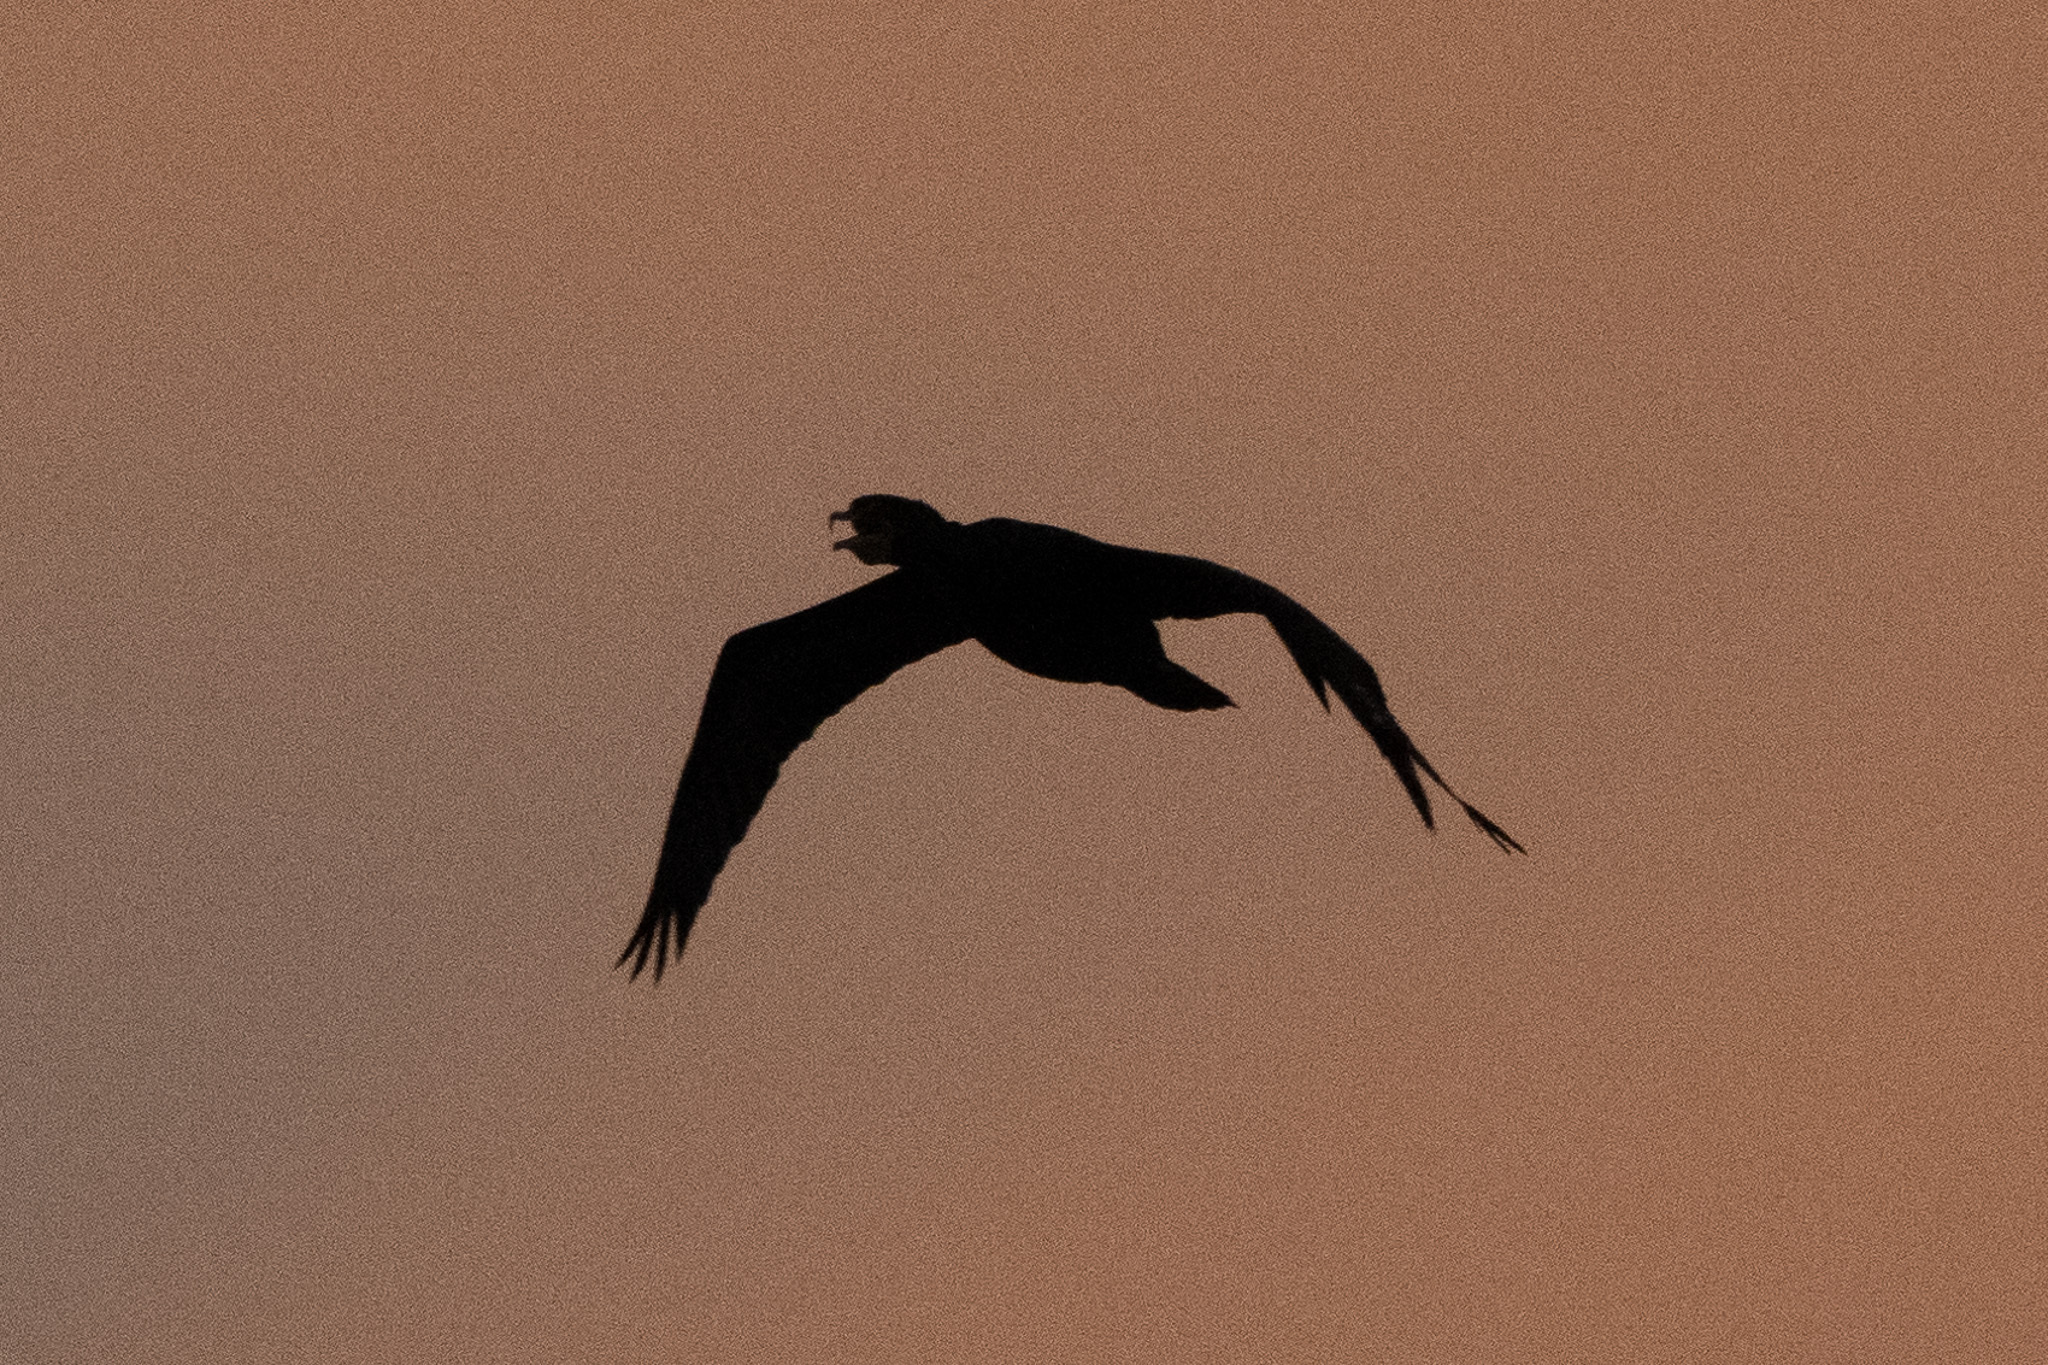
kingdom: Animalia
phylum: Chordata
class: Aves
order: Suliformes
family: Phalacrocoracidae
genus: Phalacrocorax
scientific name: Phalacrocorax auritus
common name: Double-crested cormorant
